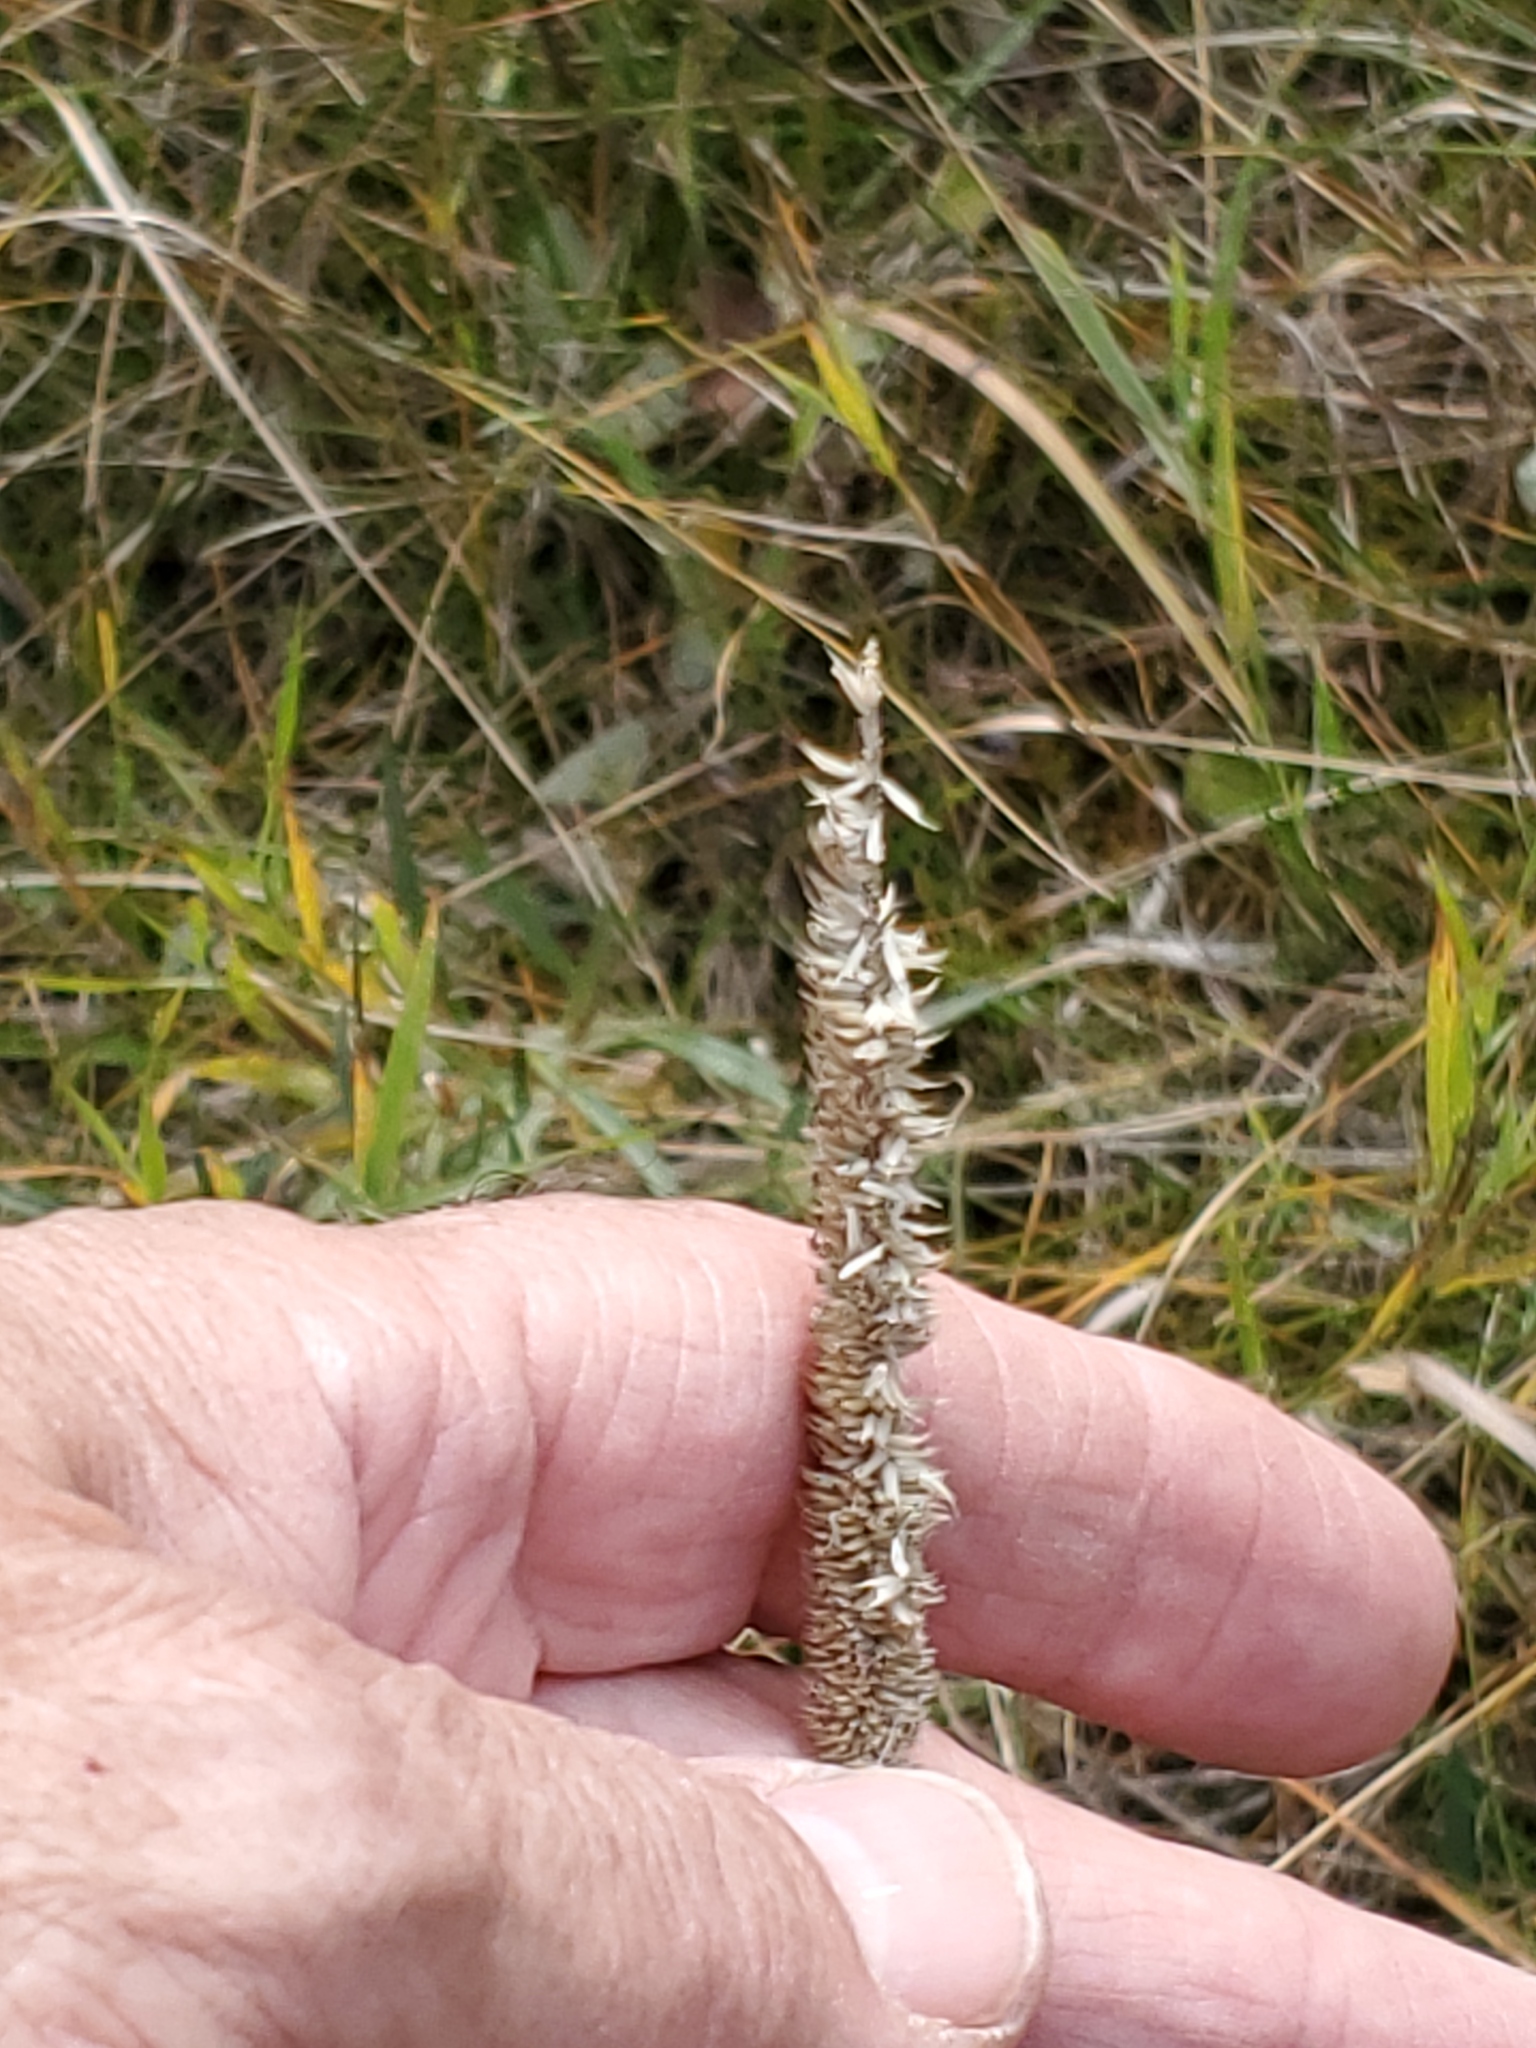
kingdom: Plantae
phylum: Tracheophyta
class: Liliopsida
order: Poales
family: Poaceae
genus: Phleum
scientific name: Phleum pratense
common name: Timothy grass
